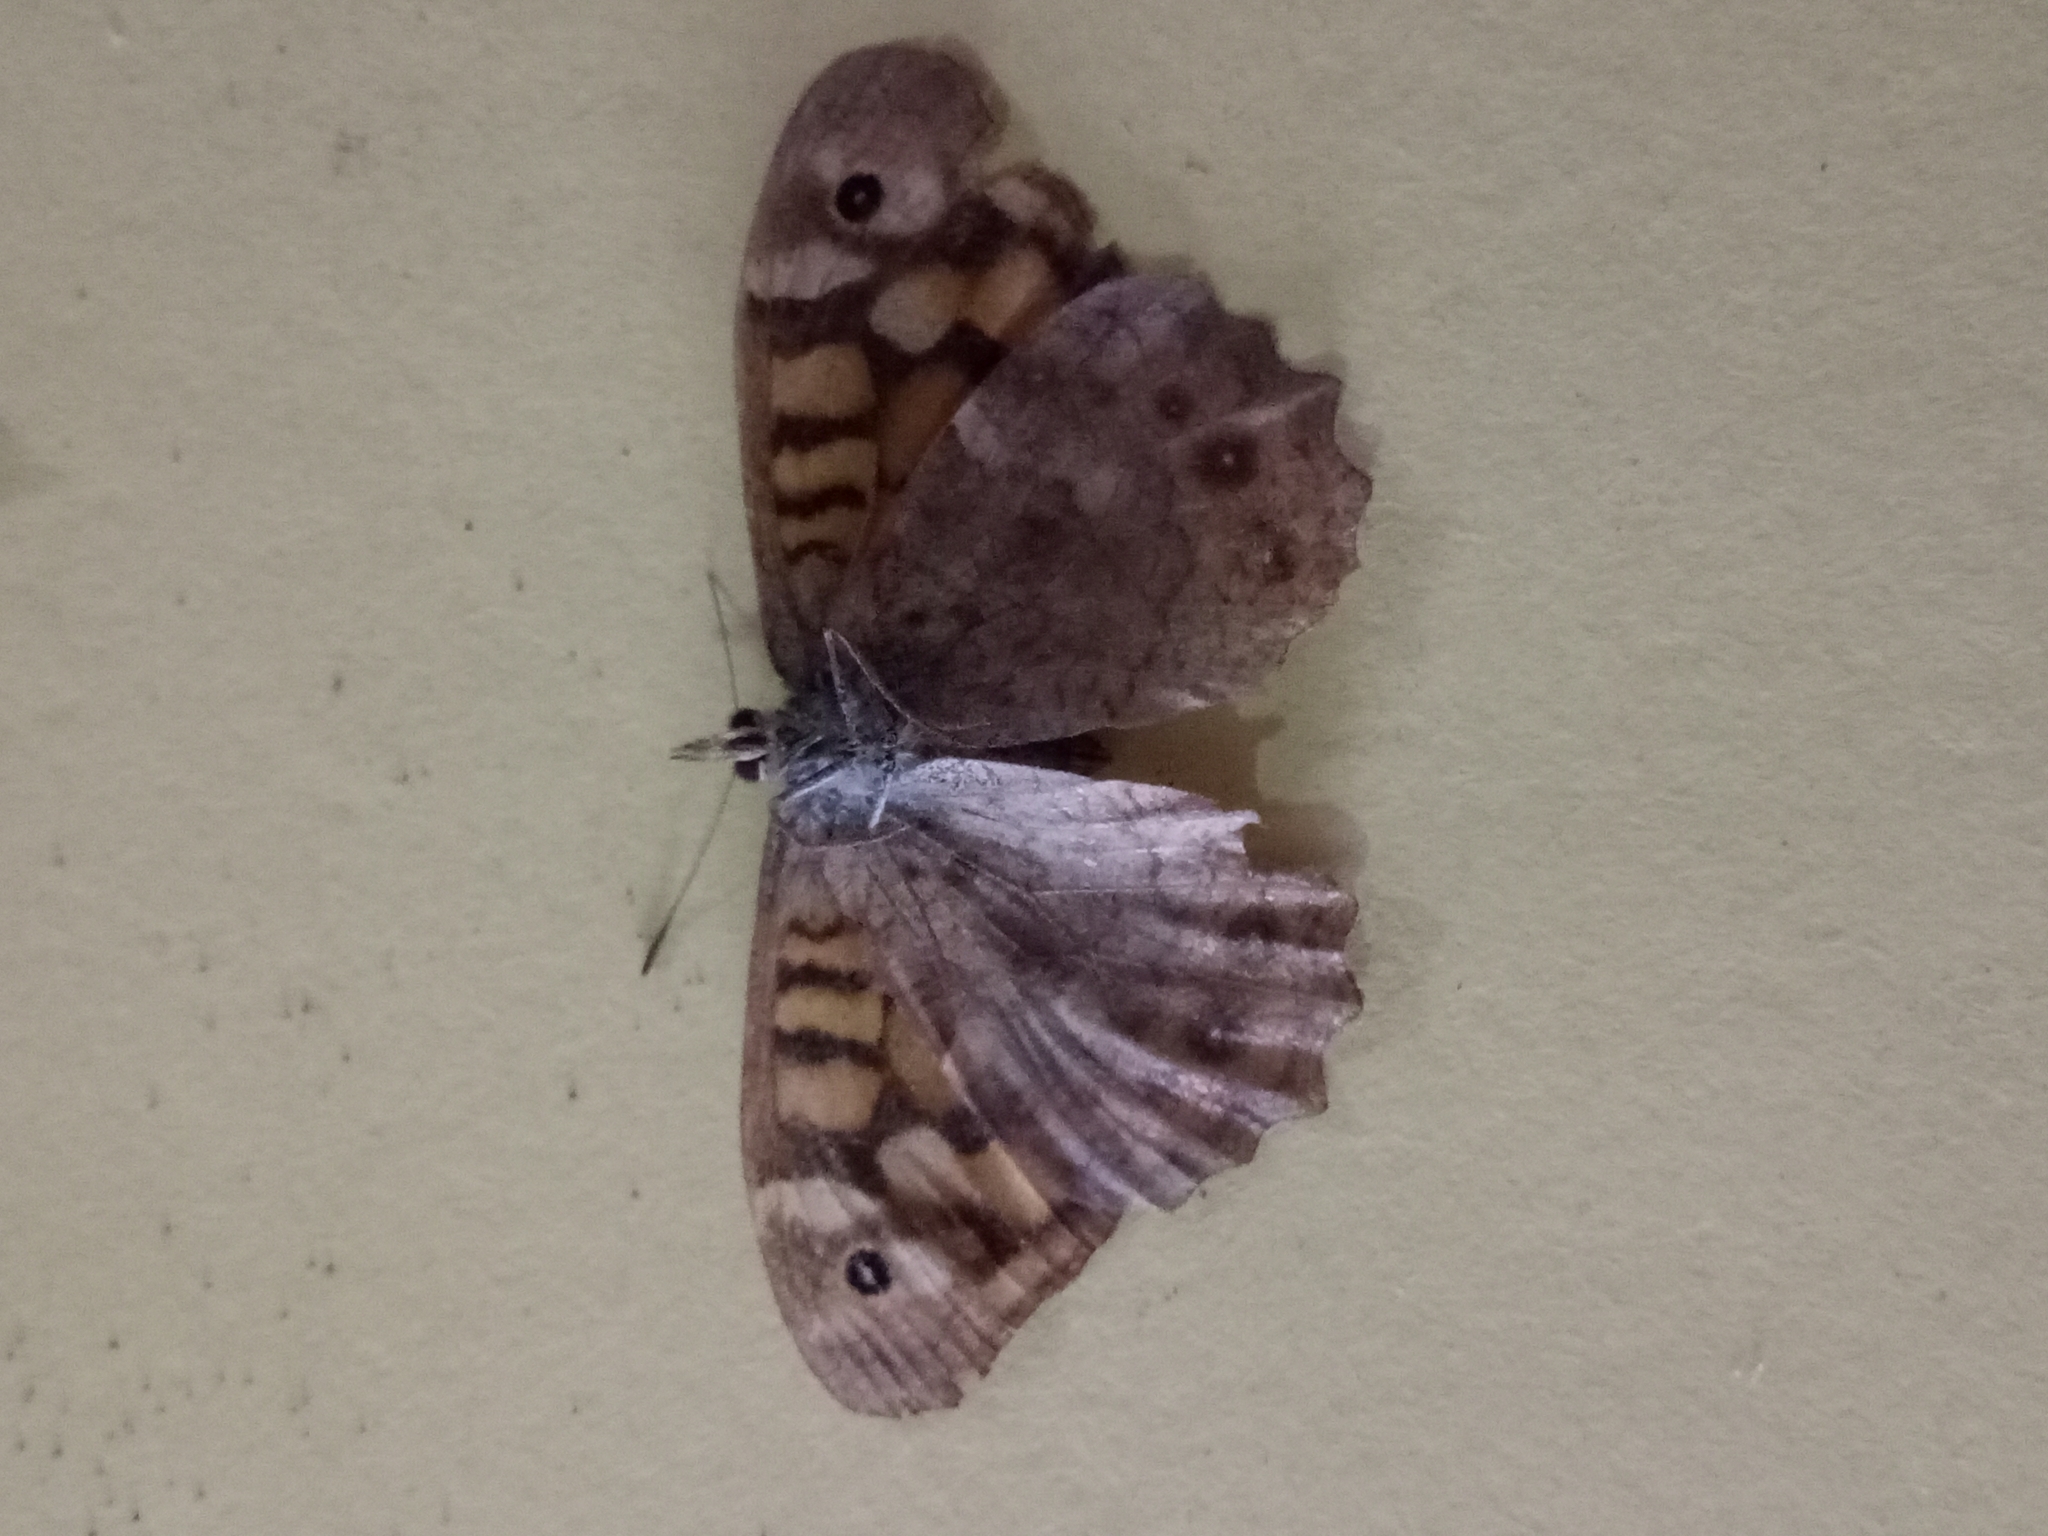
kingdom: Animalia
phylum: Arthropoda
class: Insecta
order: Lepidoptera
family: Nymphalidae
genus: Pararge
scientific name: Pararge aegeria
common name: Speckled wood
